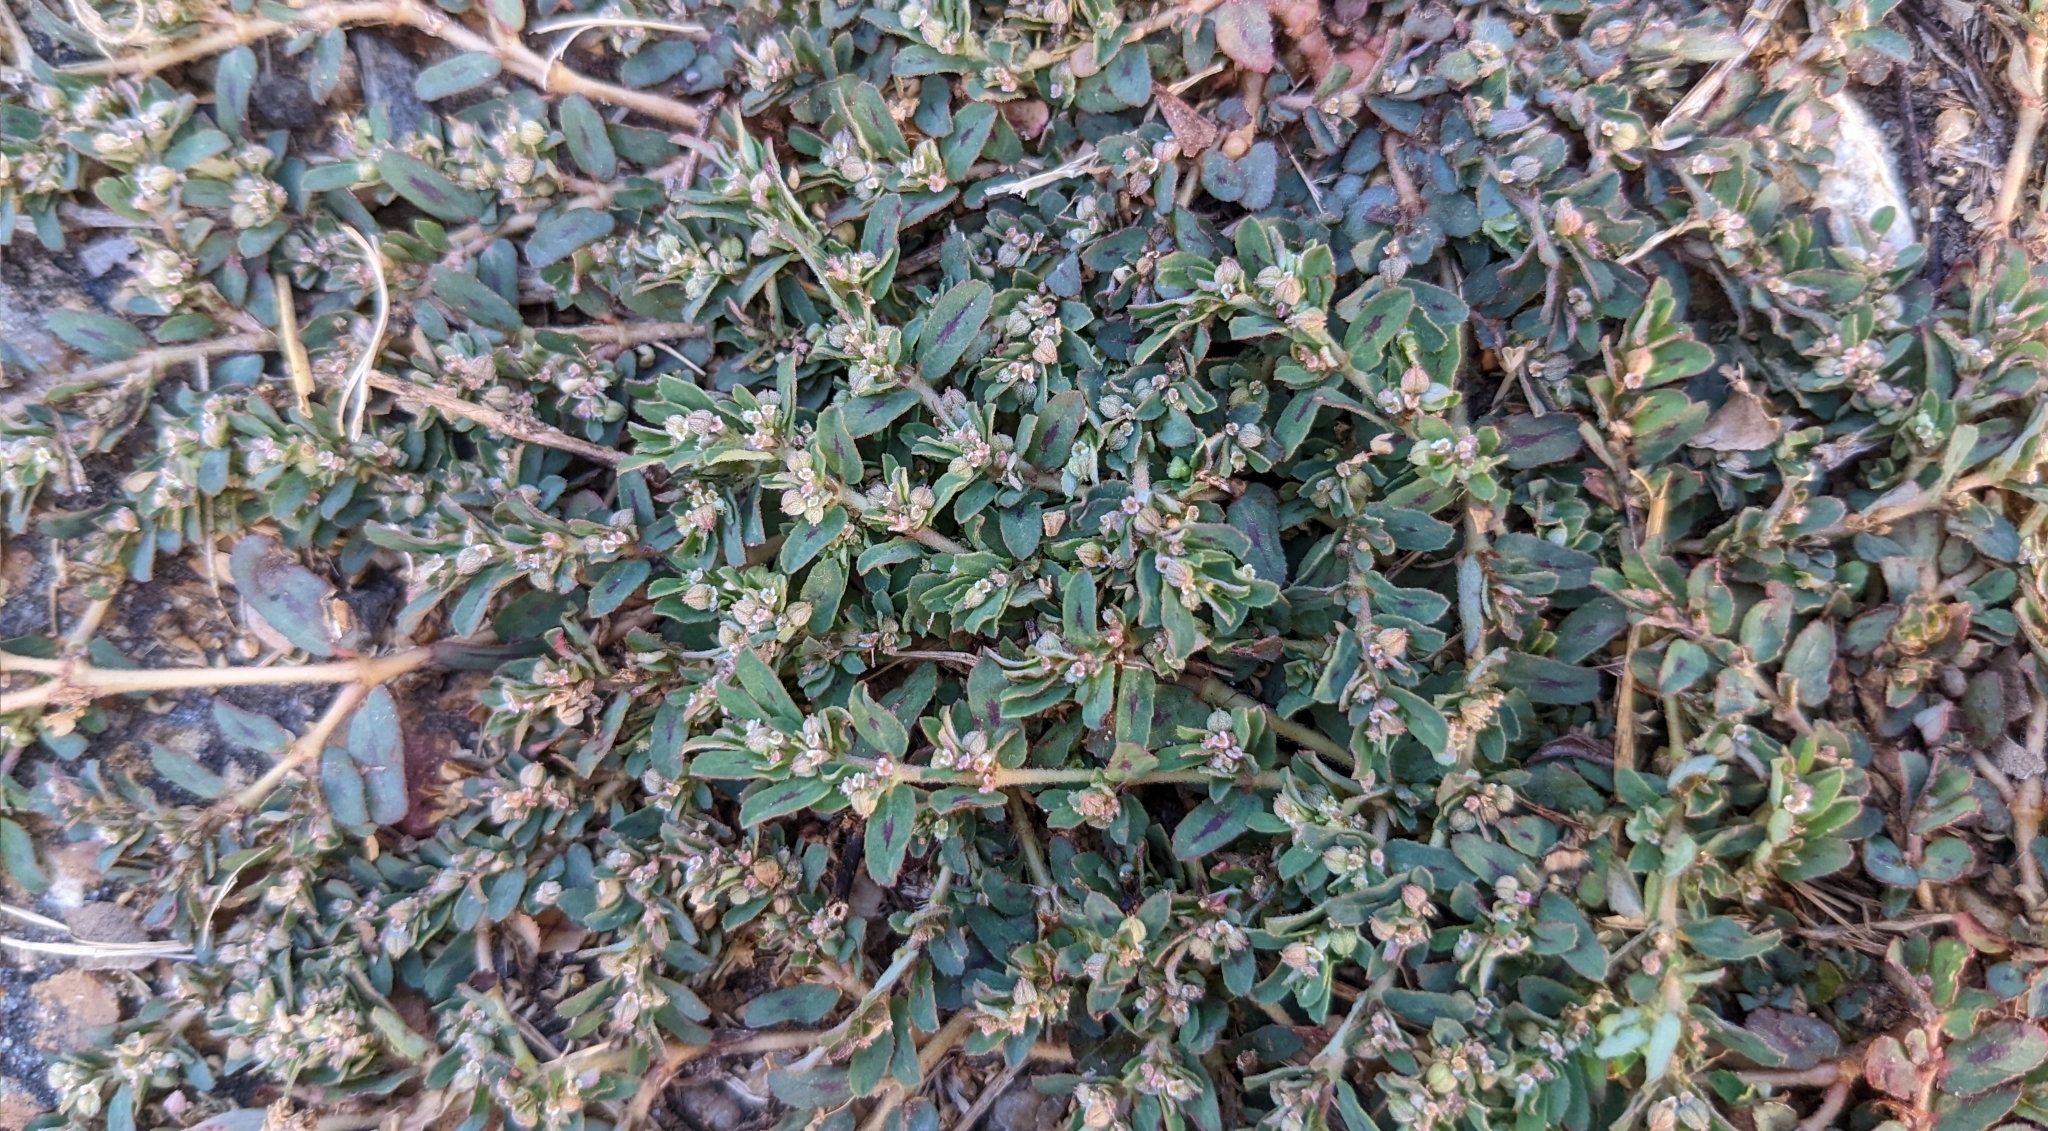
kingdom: Plantae
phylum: Tracheophyta
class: Magnoliopsida
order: Malpighiales
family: Euphorbiaceae
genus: Euphorbia
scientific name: Euphorbia maculata
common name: Spotted spurge
